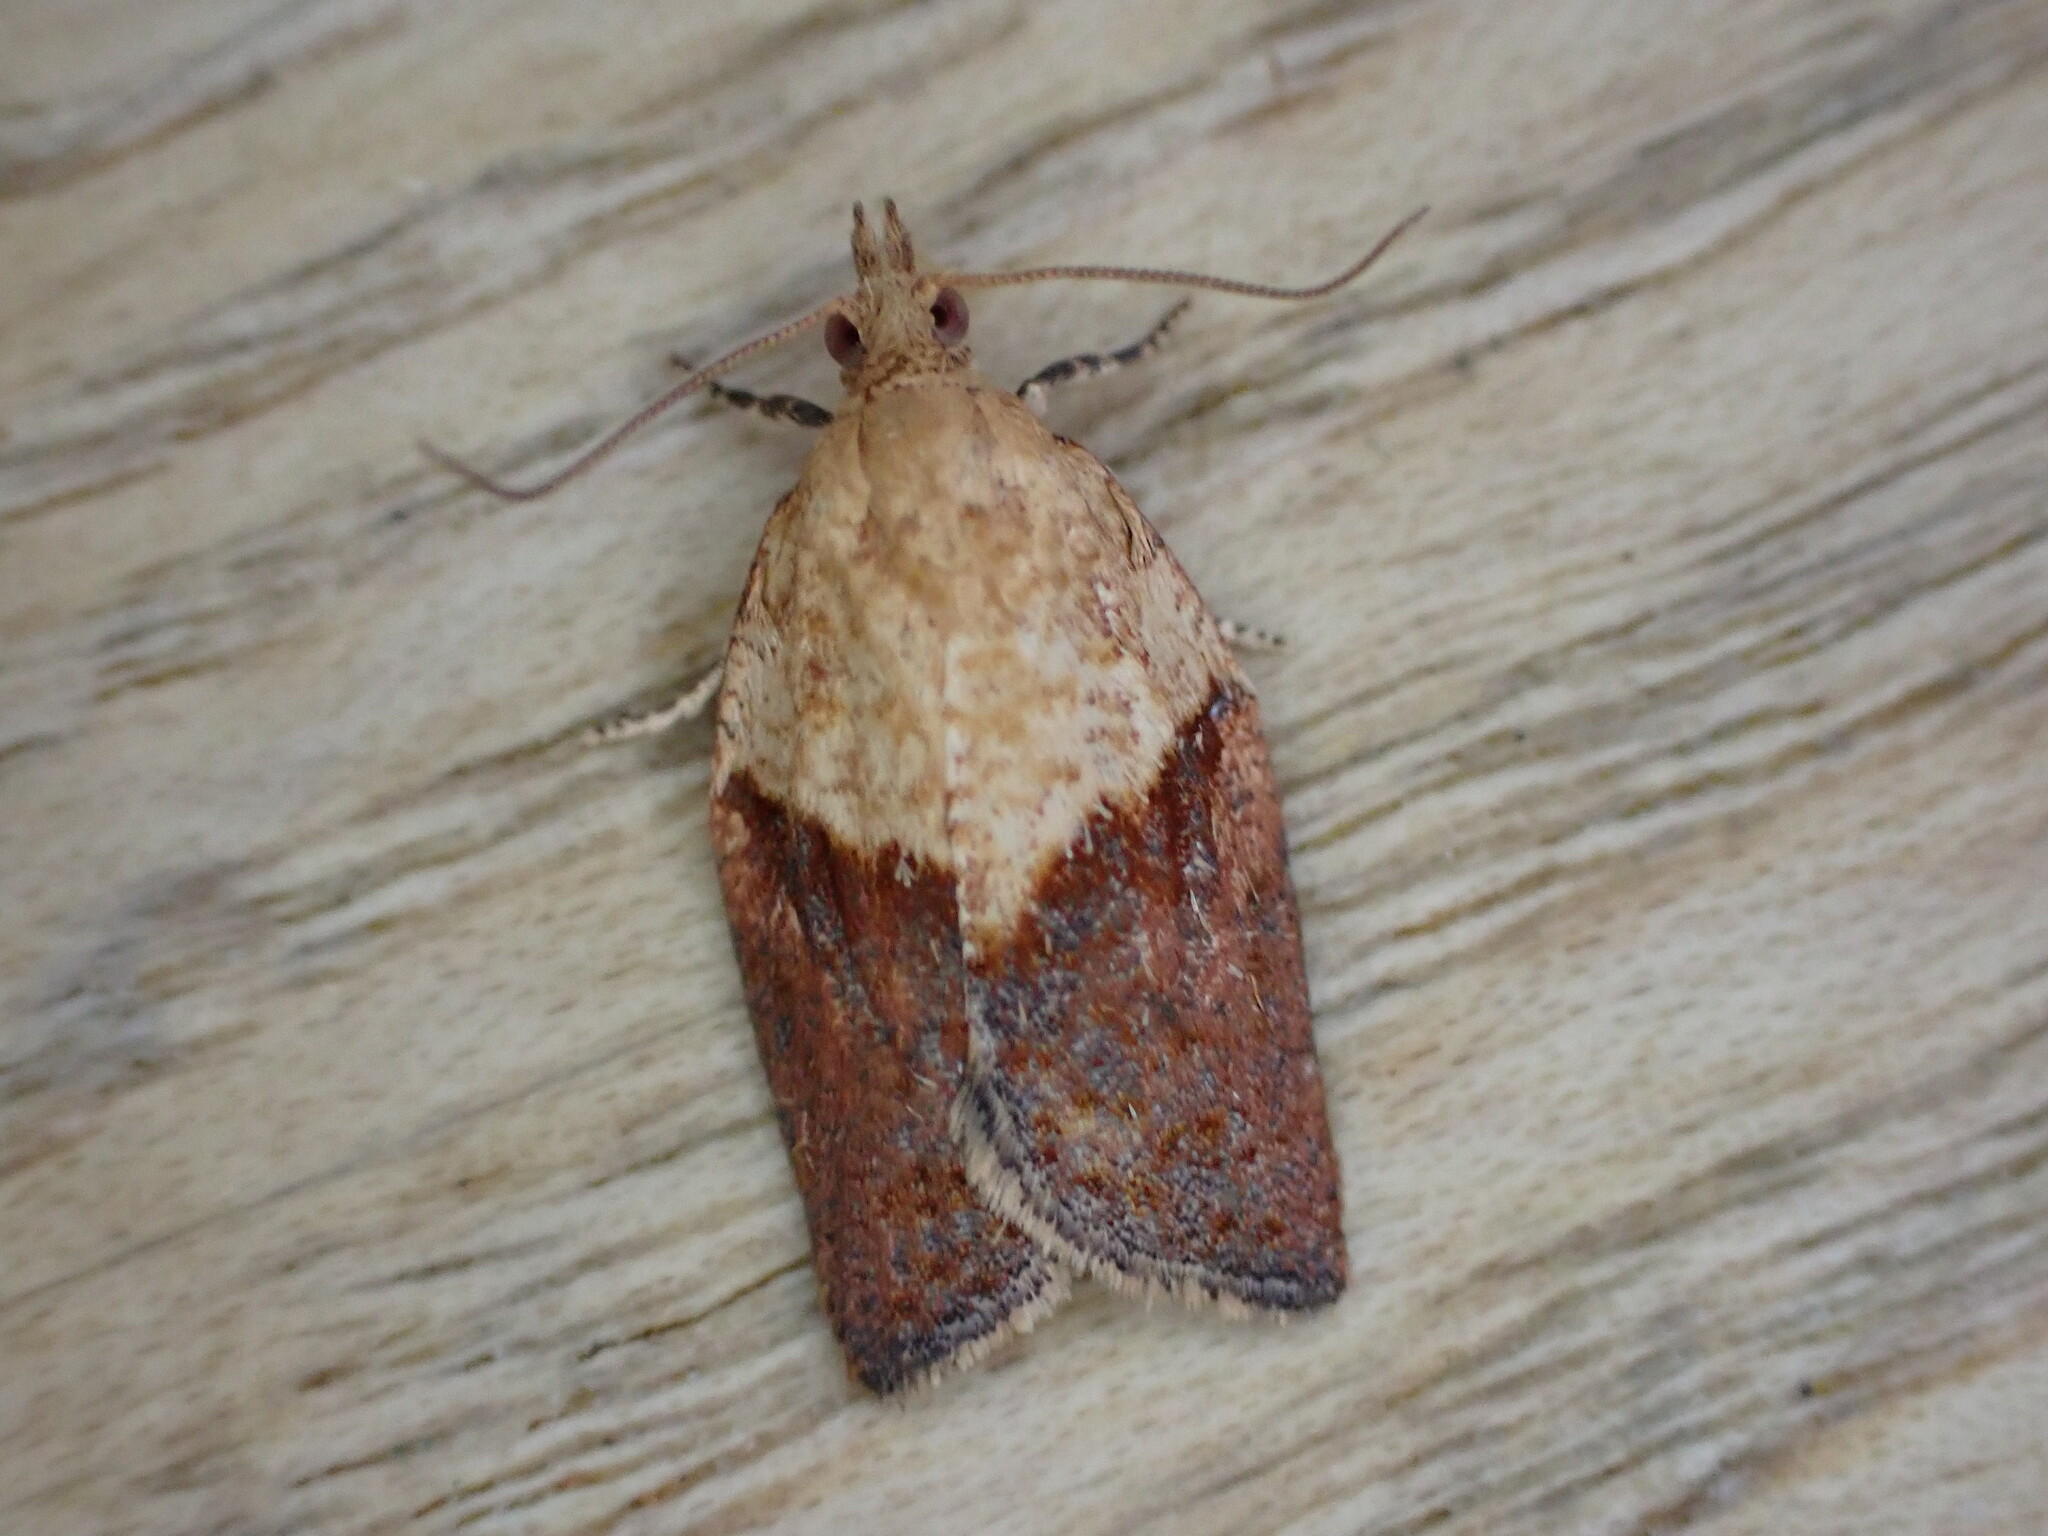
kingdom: Animalia
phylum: Arthropoda
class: Insecta
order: Lepidoptera
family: Tortricidae
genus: Epiphyas
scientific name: Epiphyas postvittana
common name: Light brown apple moth
